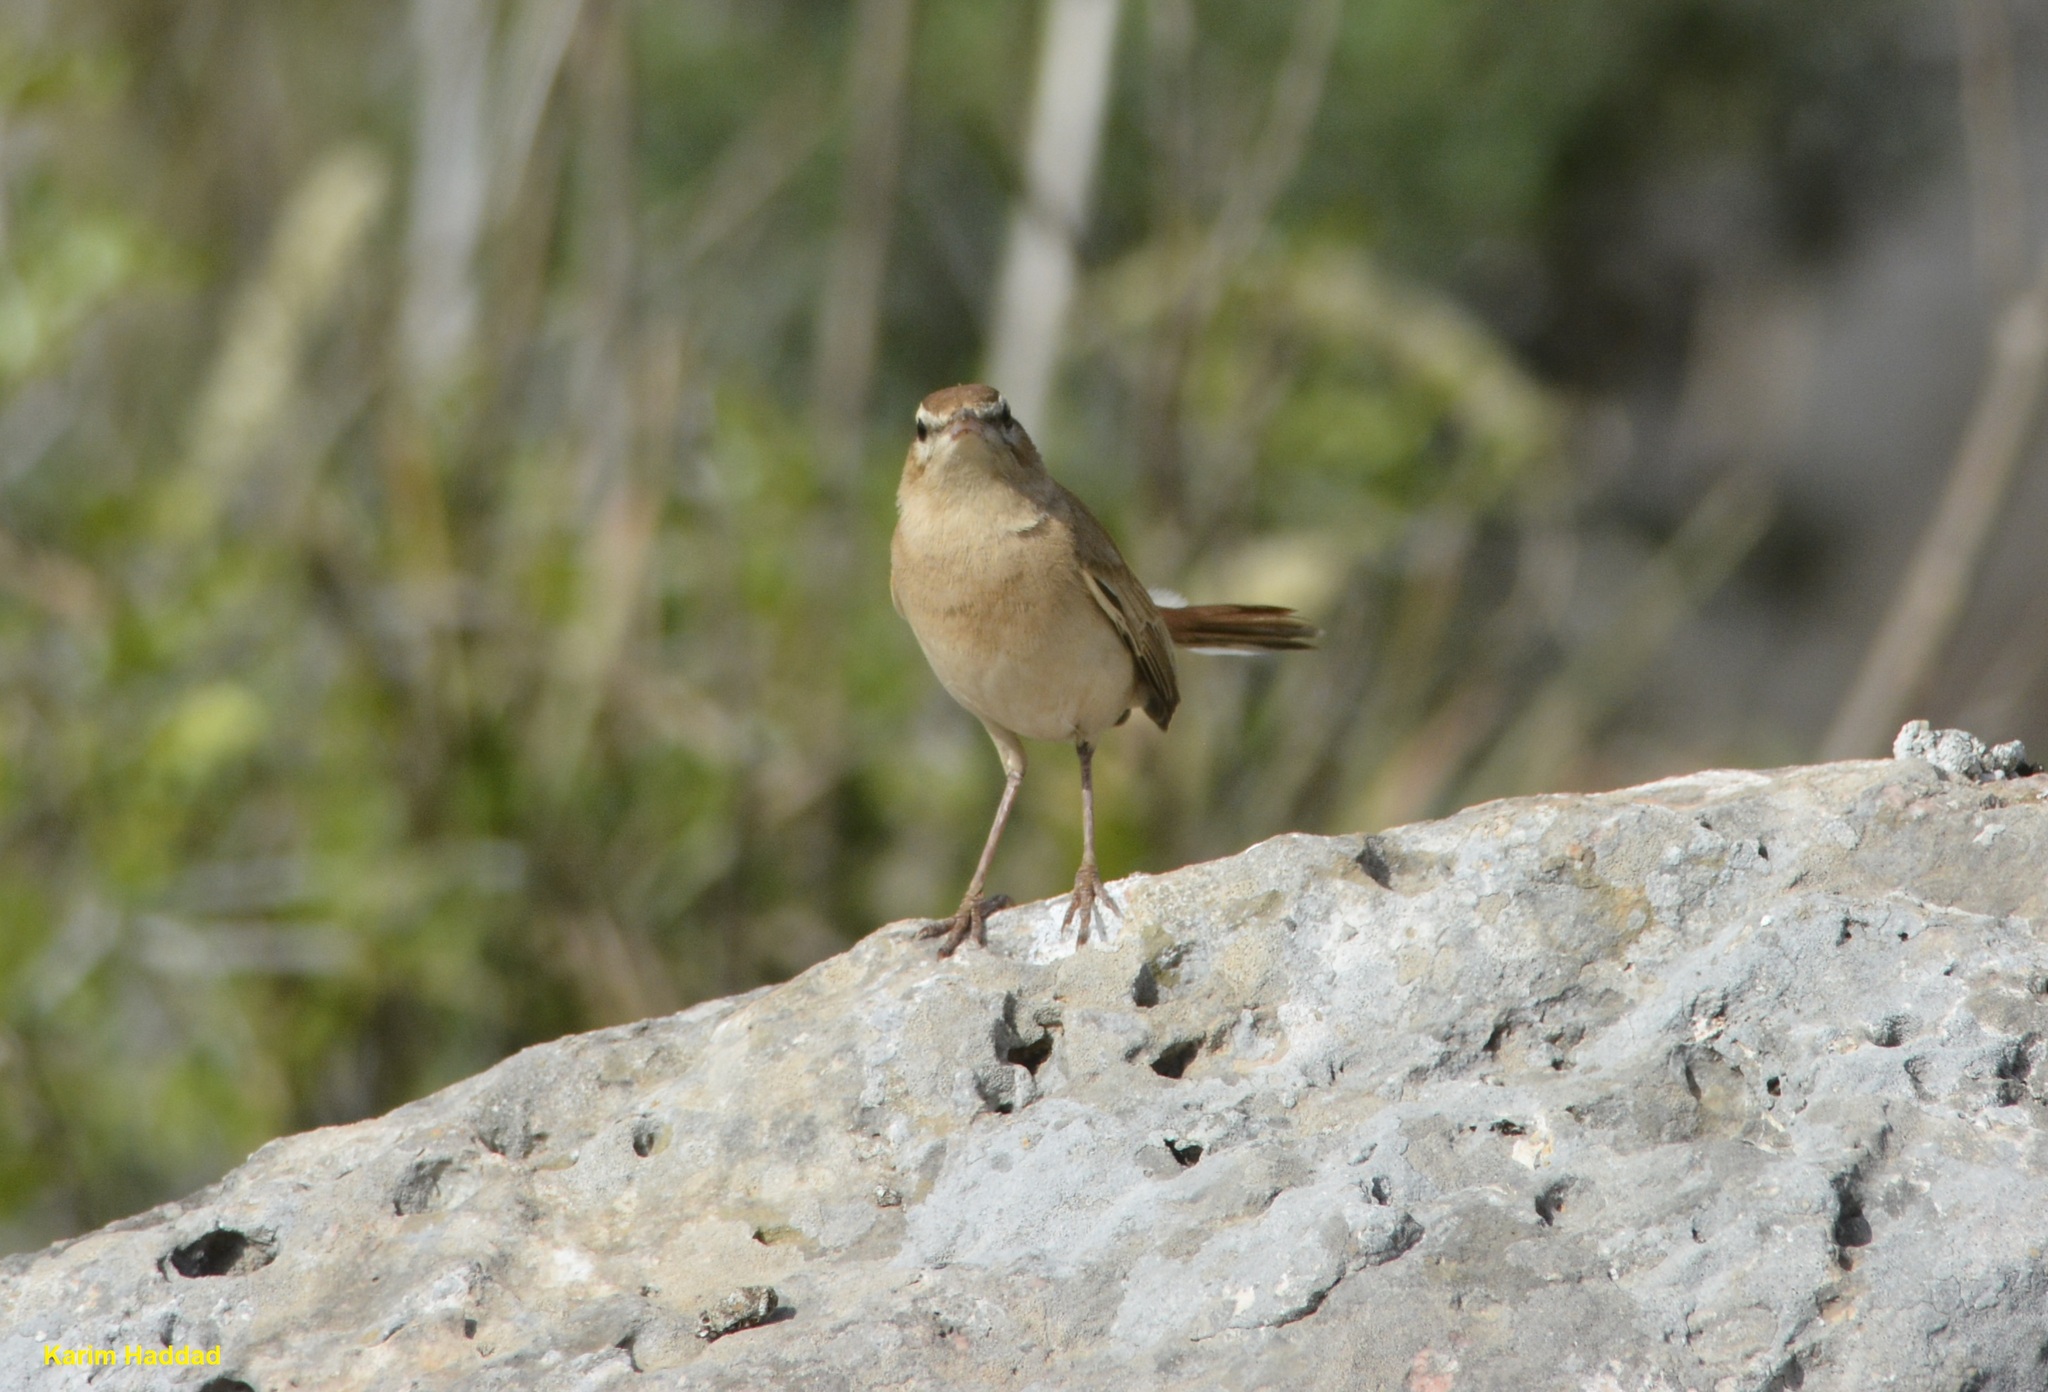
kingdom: Animalia
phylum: Chordata
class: Aves
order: Passeriformes
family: Muscicapidae
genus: Erythropygia
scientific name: Erythropygia galactotes
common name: Rufous-tailed scrub robin
